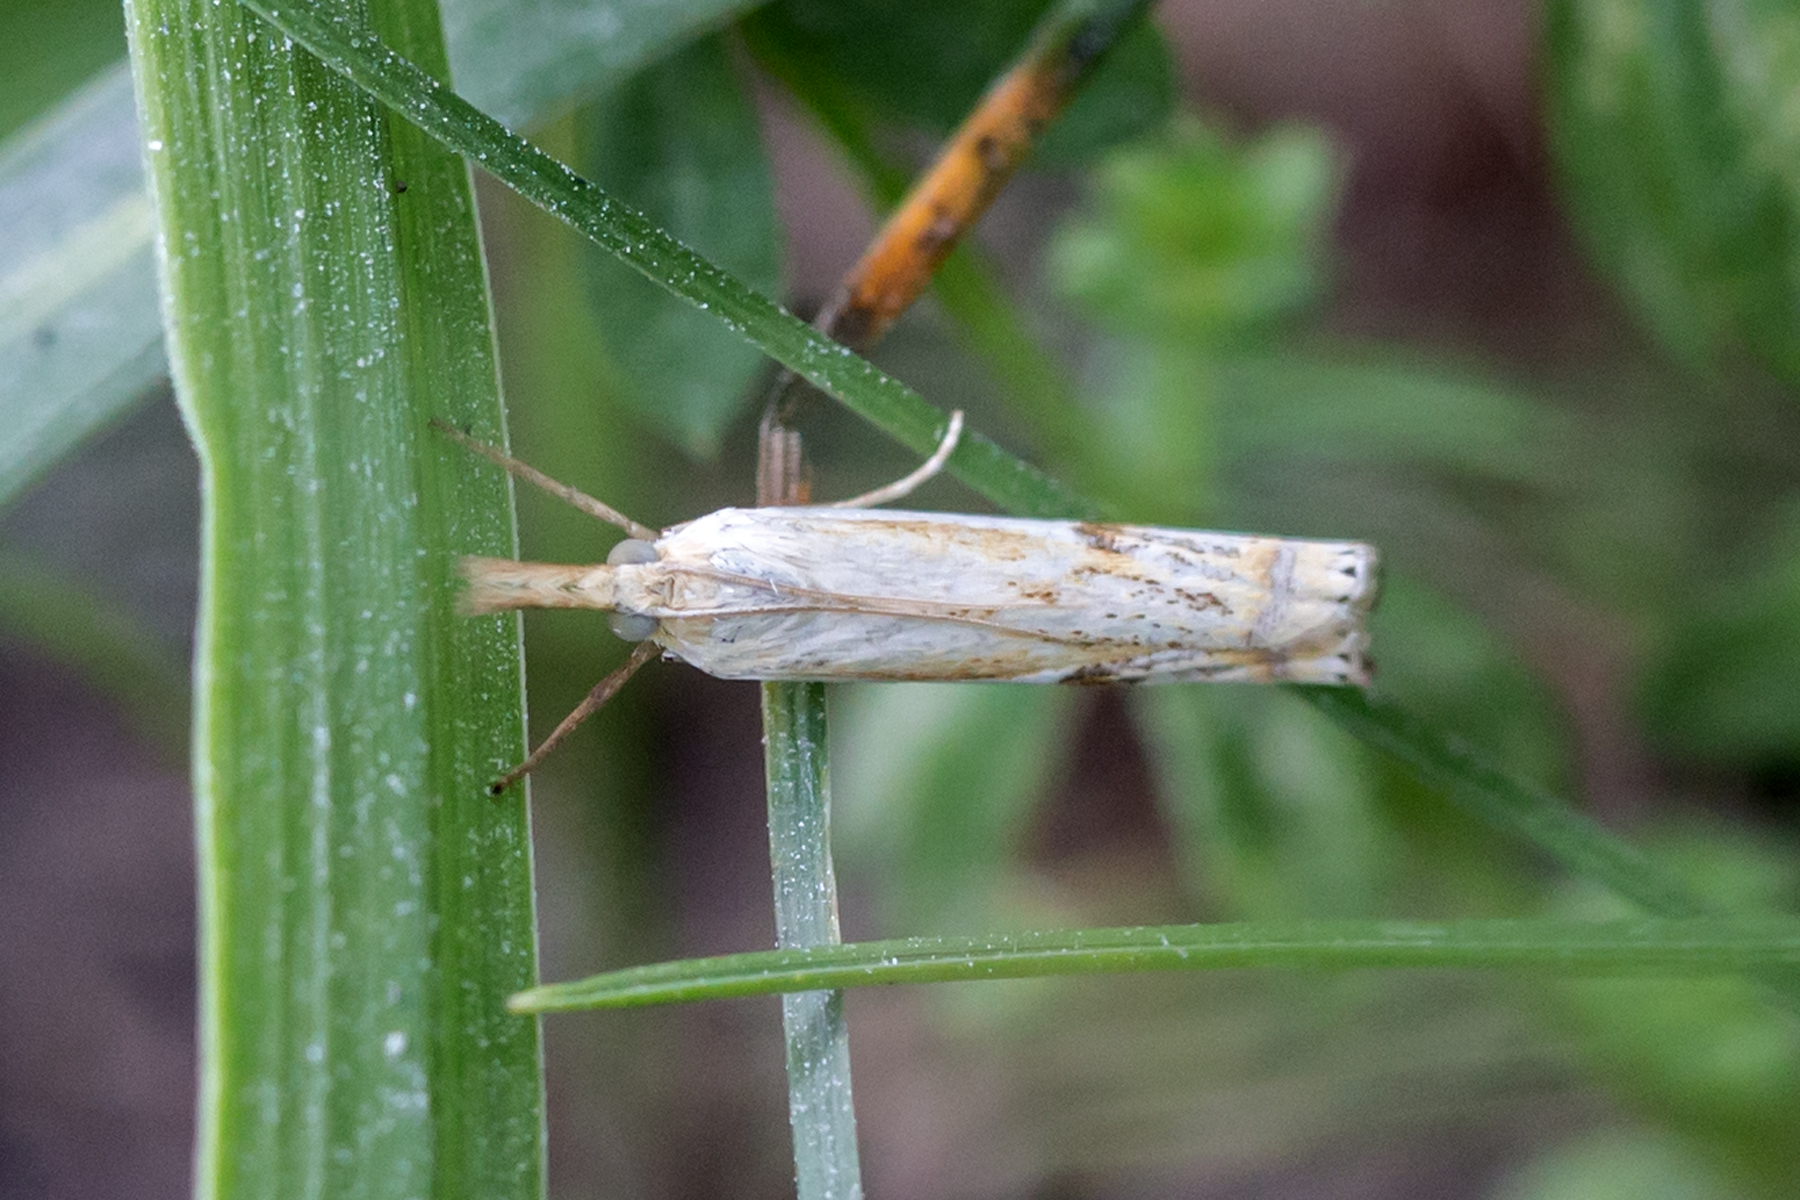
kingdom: Animalia
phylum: Arthropoda
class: Insecta
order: Lepidoptera
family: Crambidae
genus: Crambus
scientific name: Crambus
